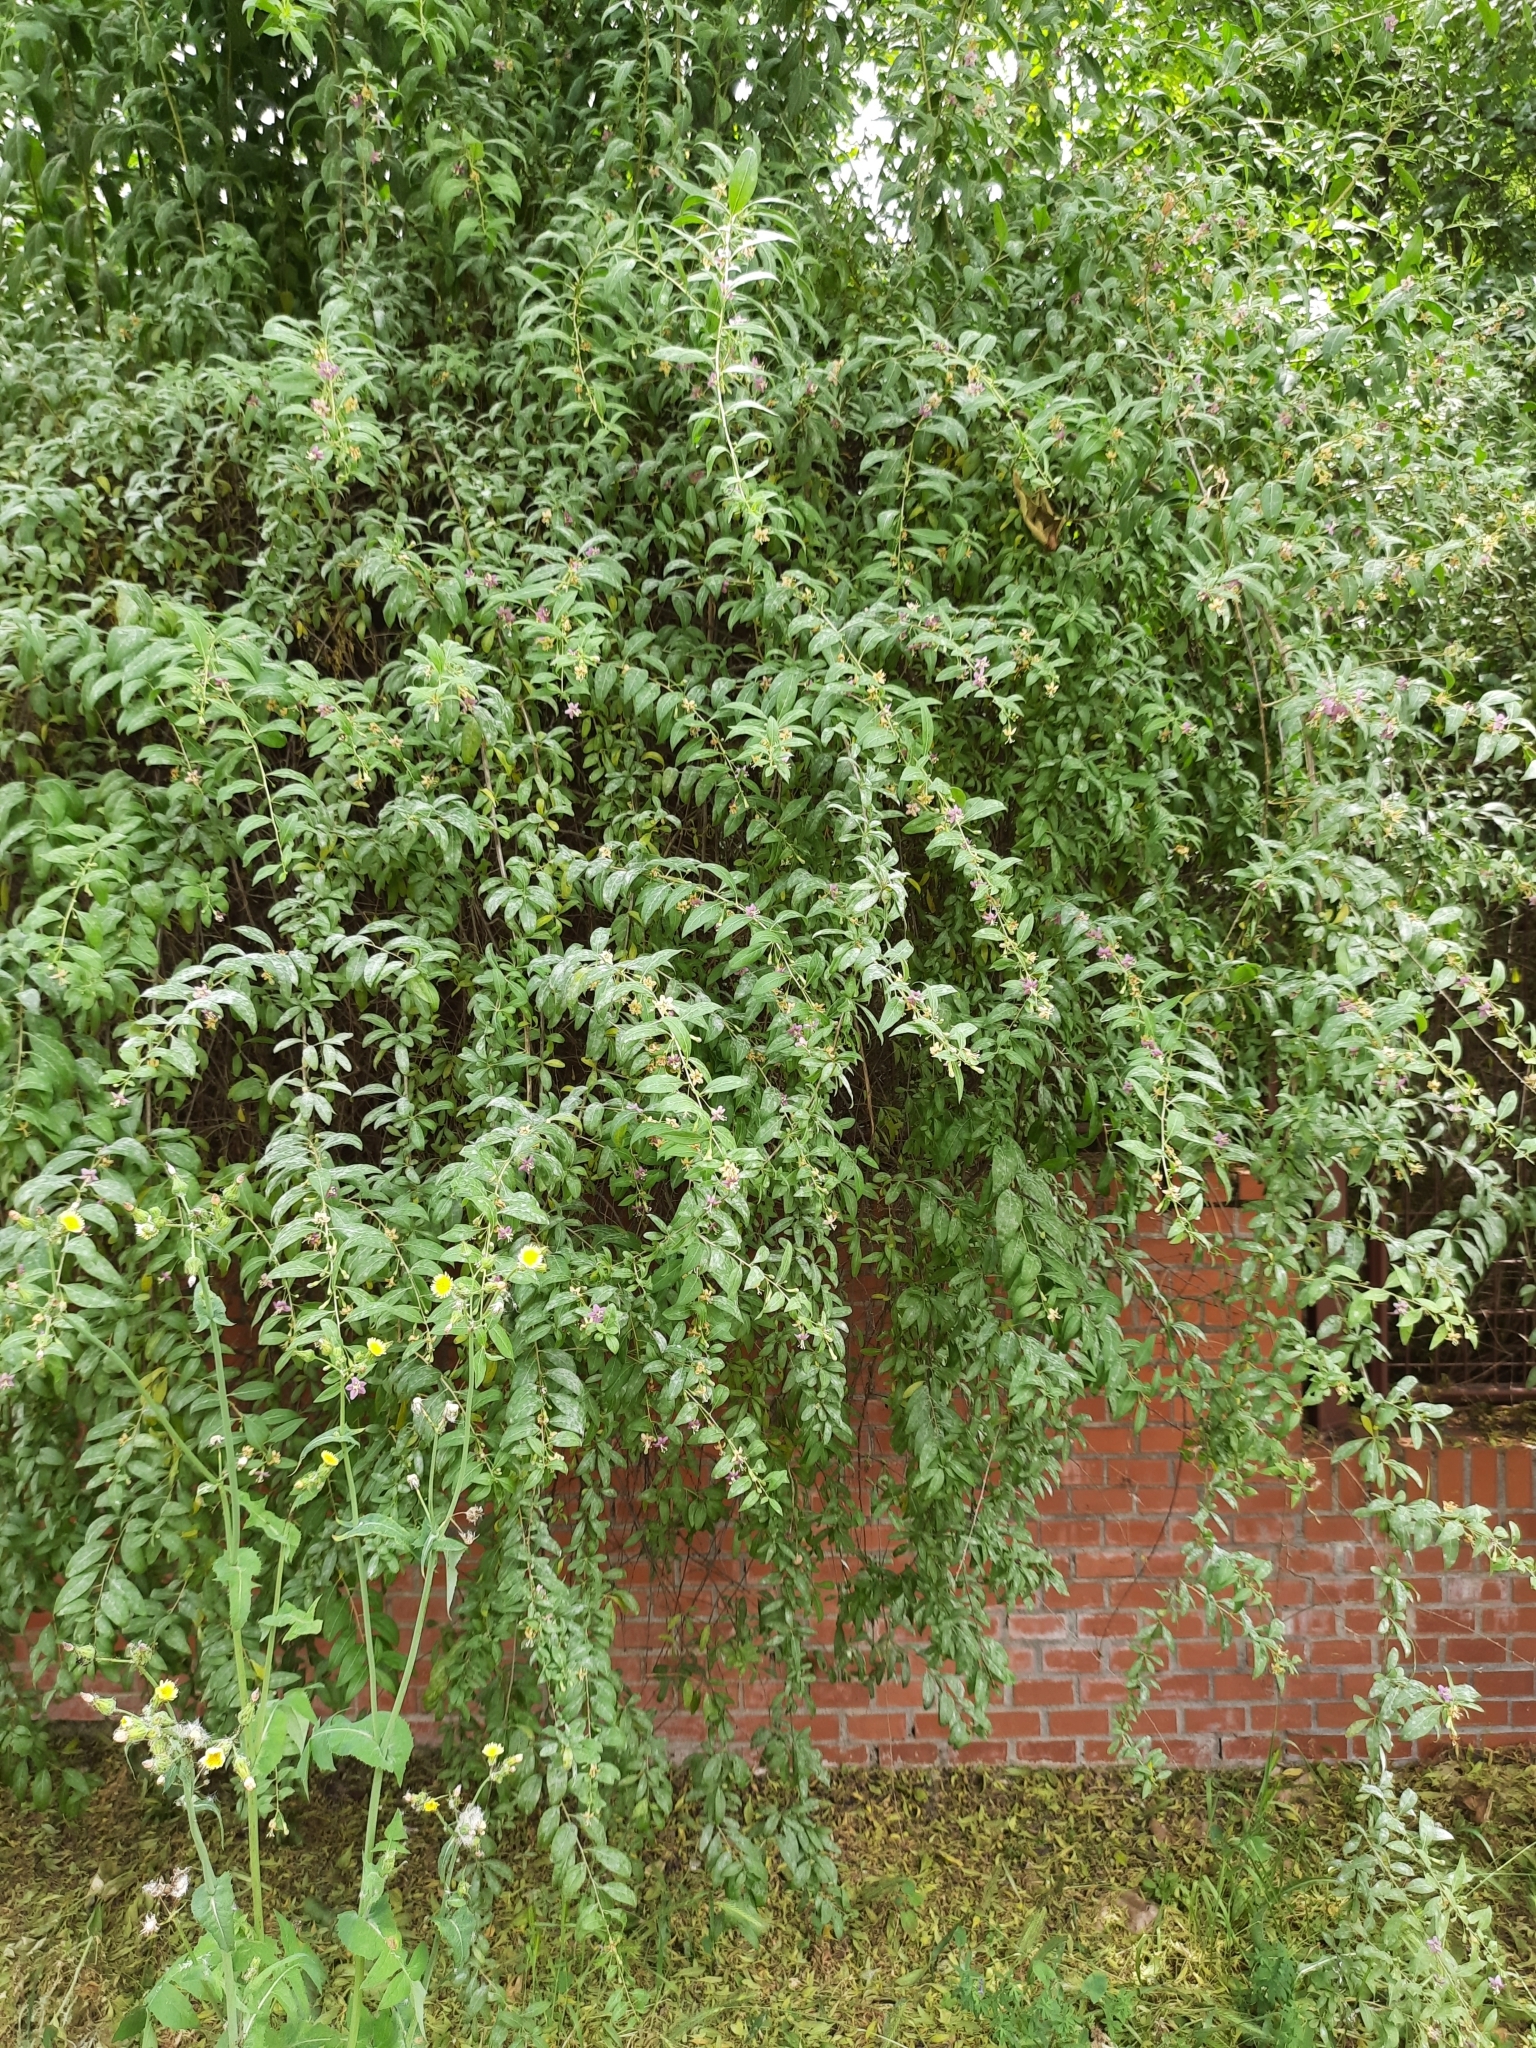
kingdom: Plantae
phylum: Tracheophyta
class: Magnoliopsida
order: Solanales
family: Solanaceae
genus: Lycium
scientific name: Lycium barbarum
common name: Duke of argyll's teaplant
